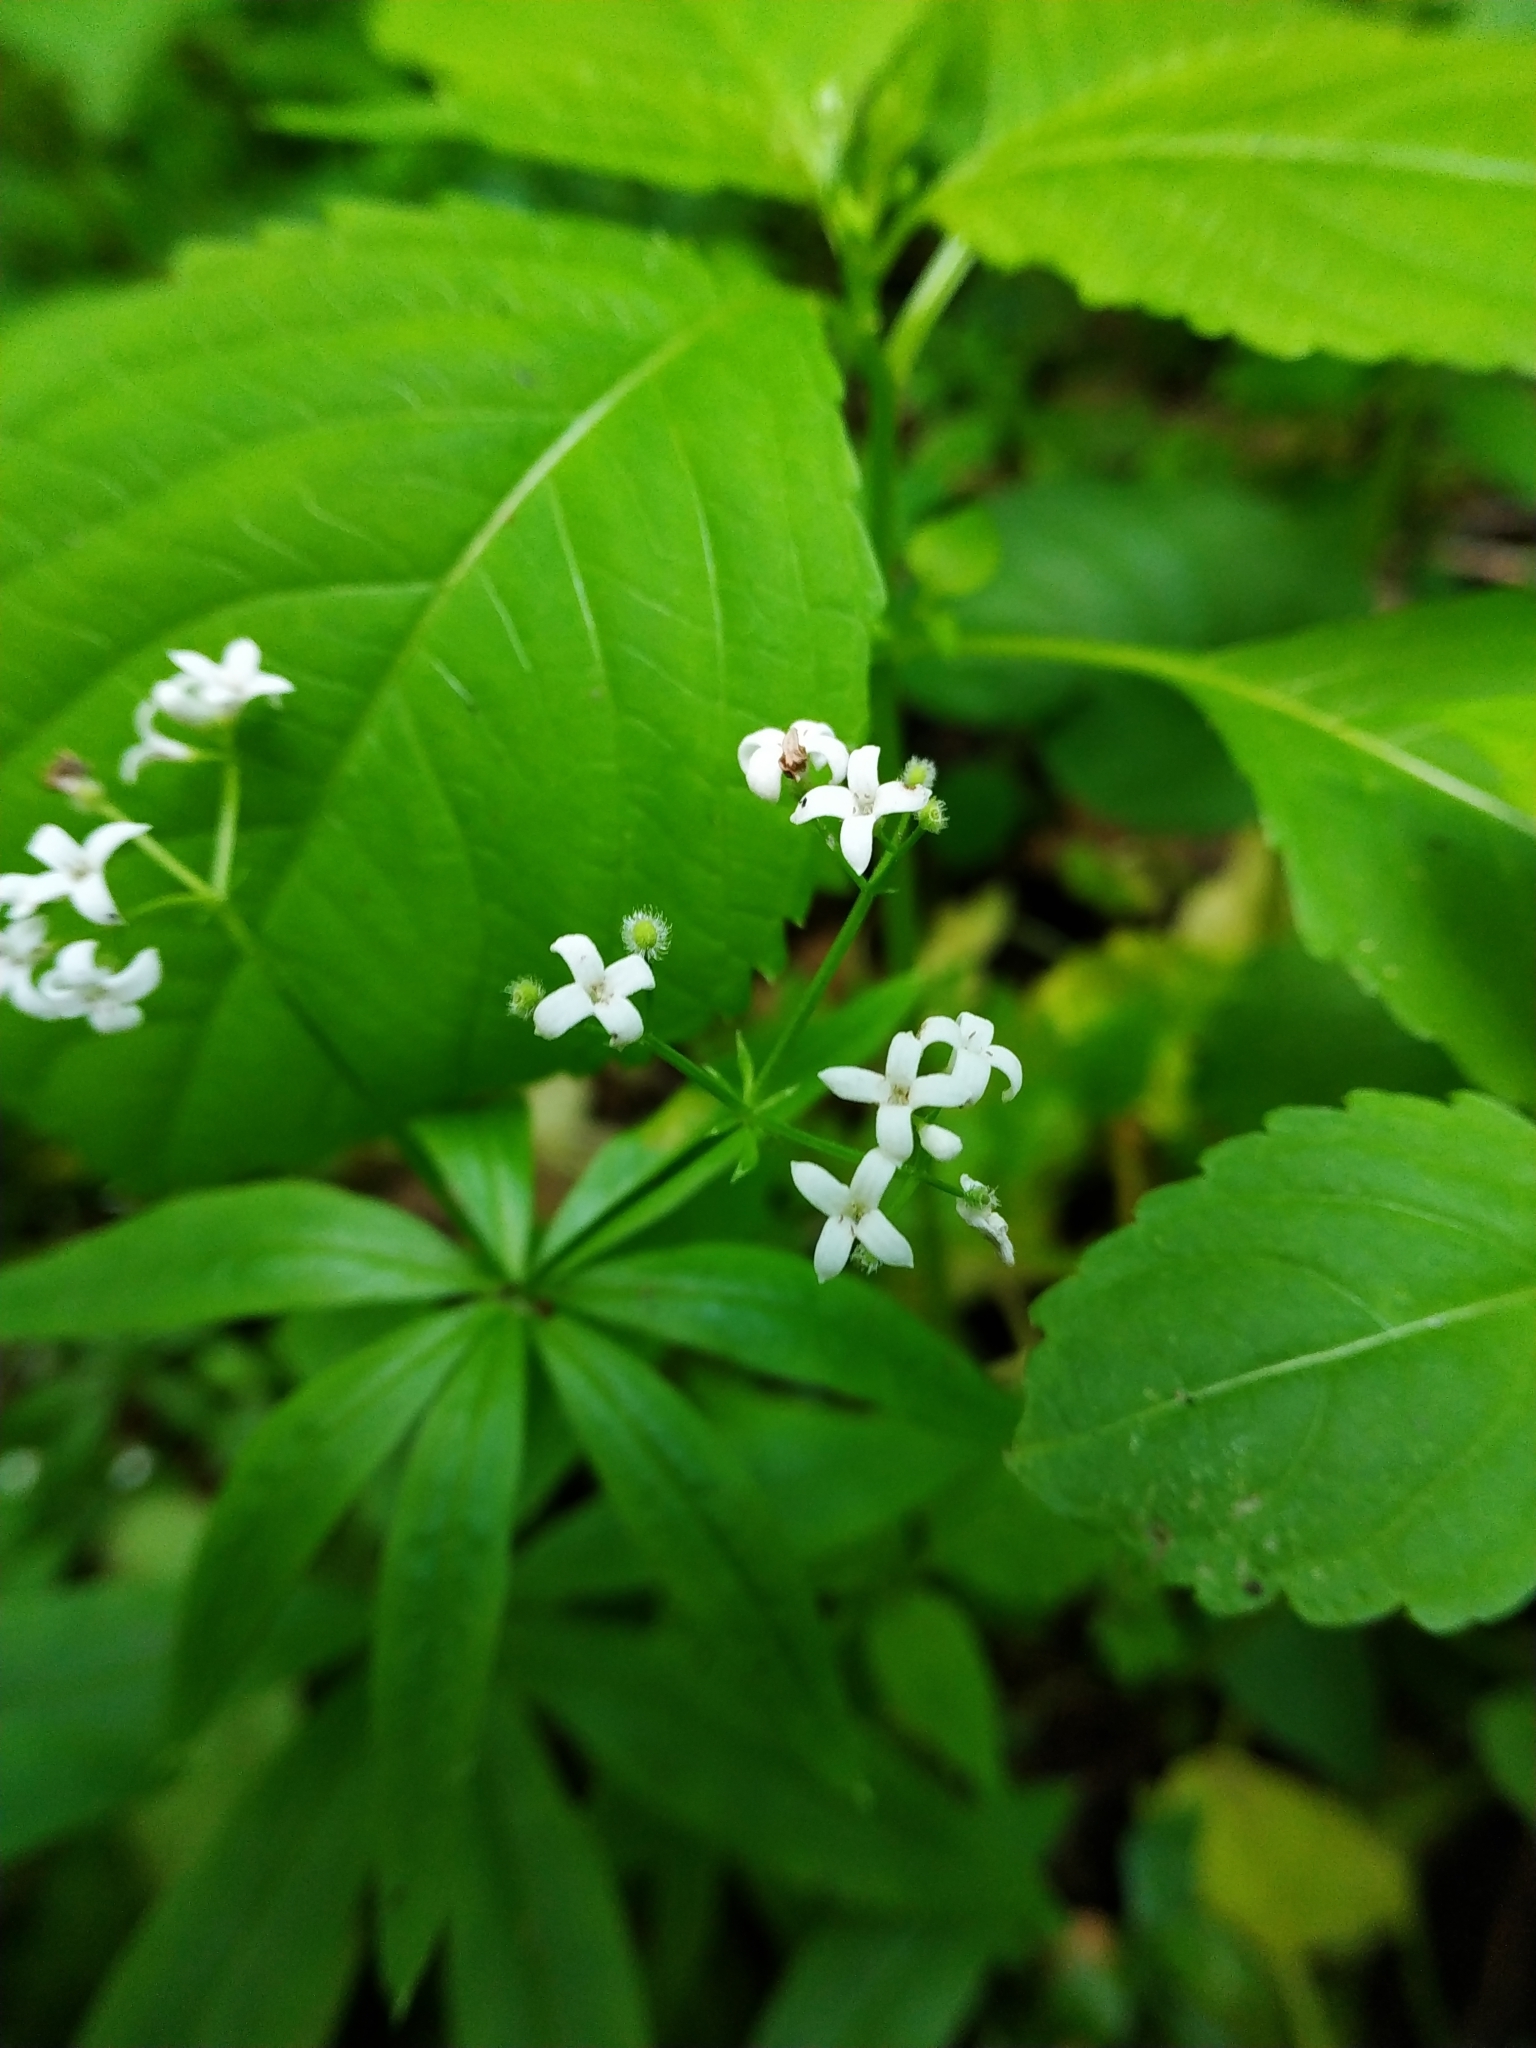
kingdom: Plantae
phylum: Tracheophyta
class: Magnoliopsida
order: Gentianales
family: Rubiaceae
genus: Galium
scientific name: Galium odoratum
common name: Sweet woodruff
